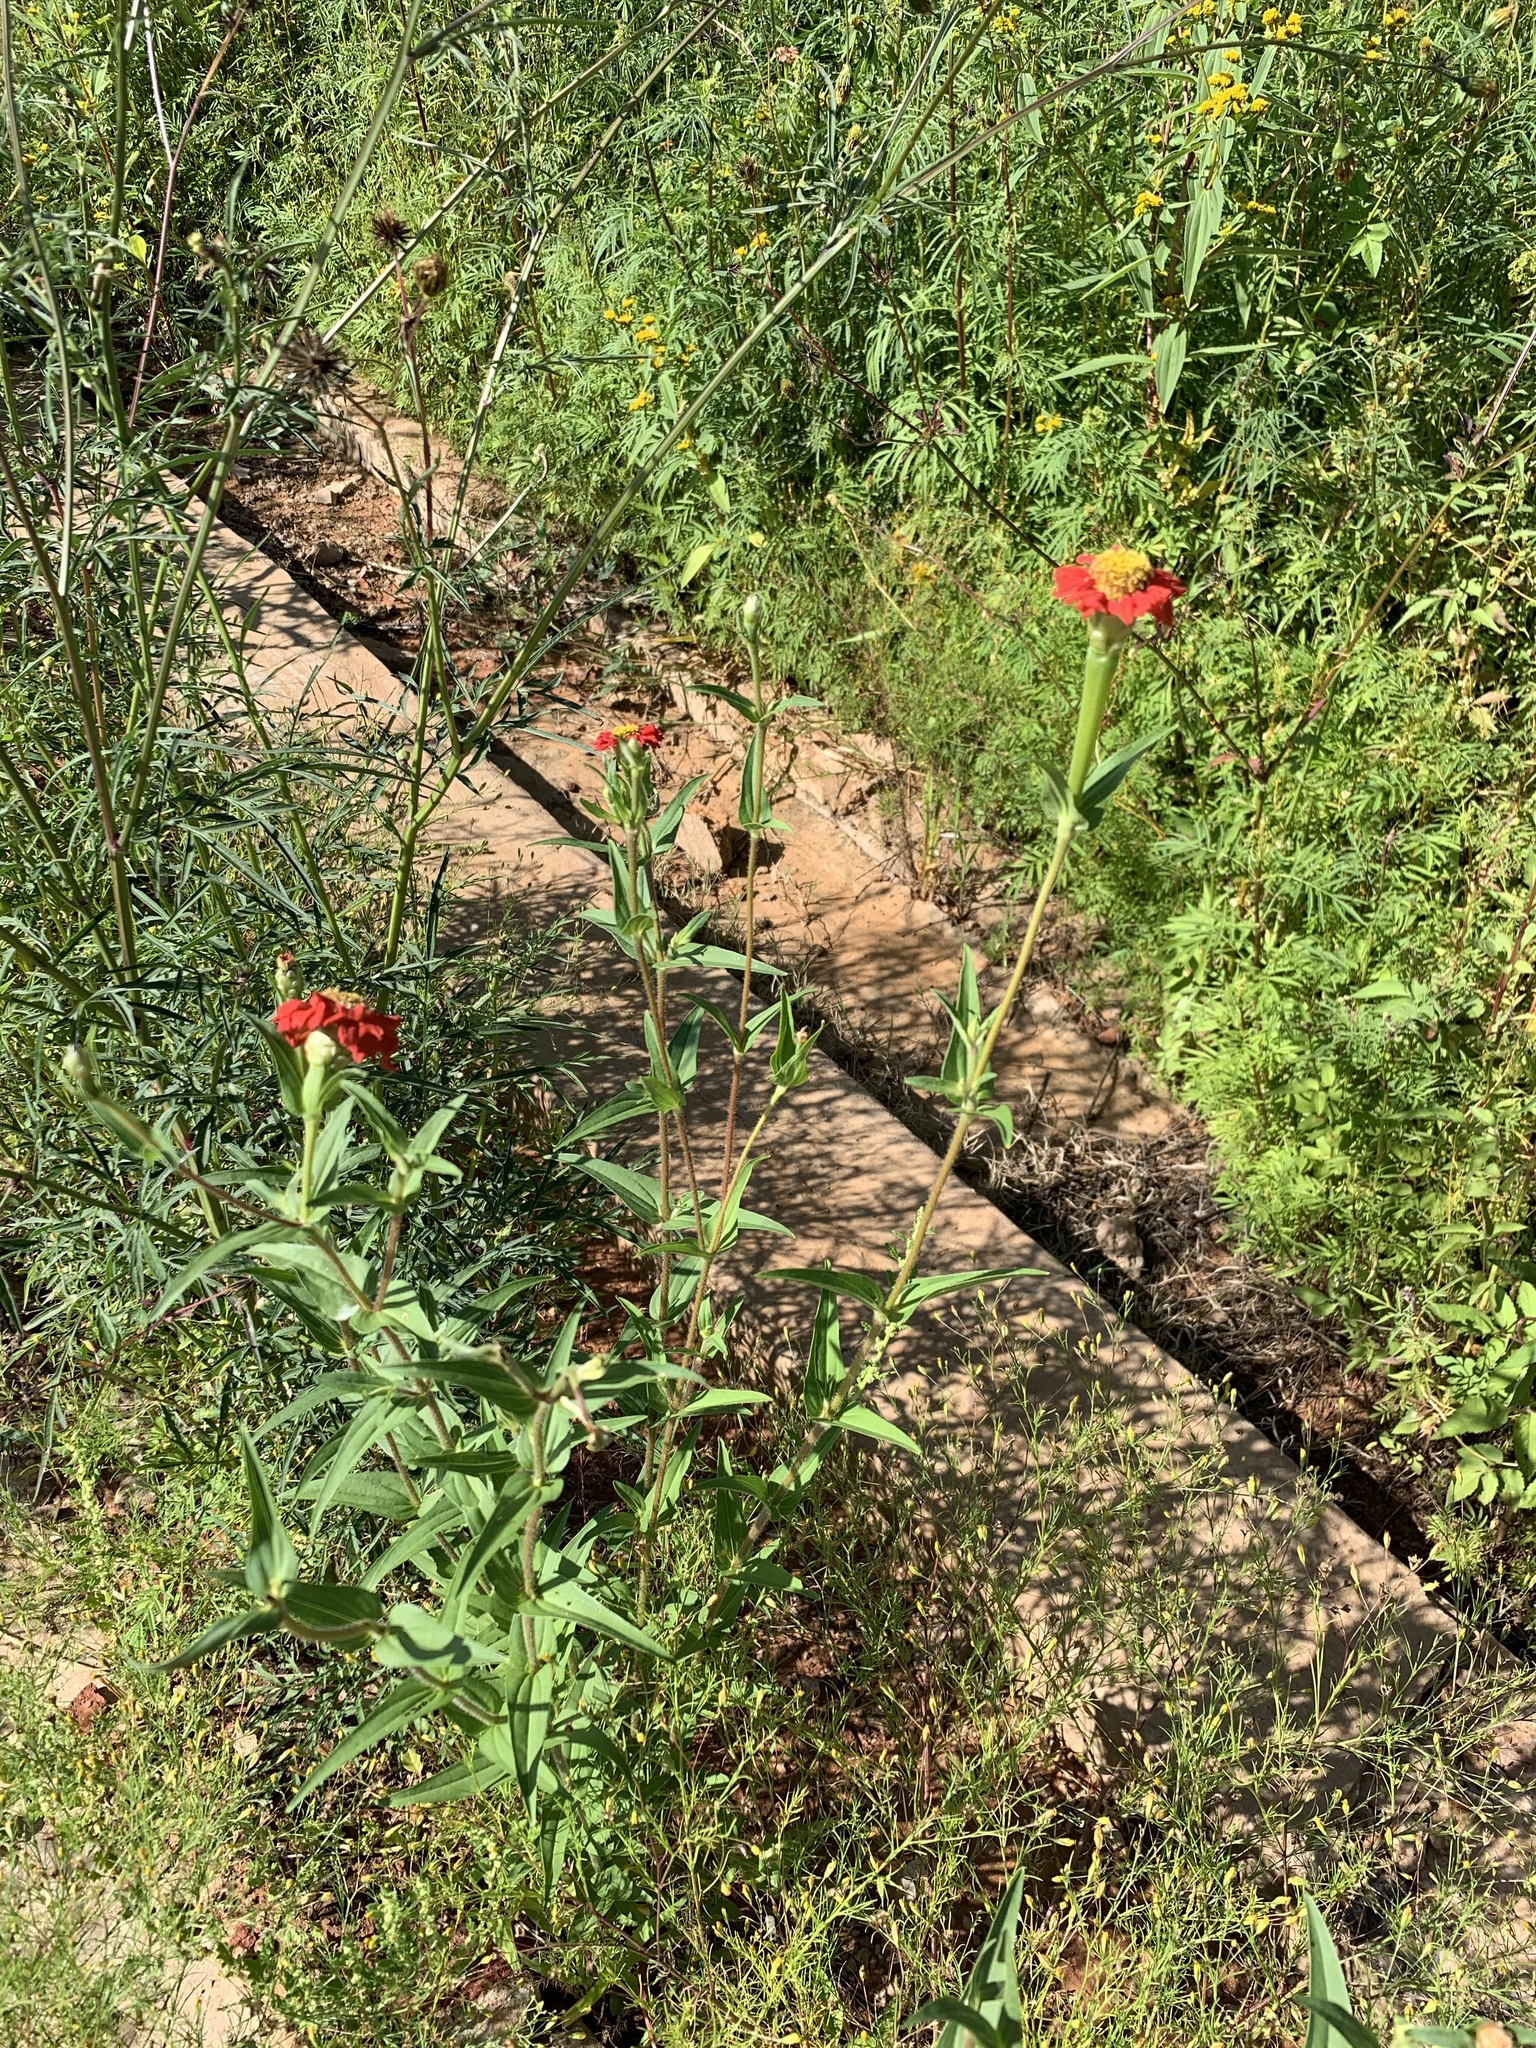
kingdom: Plantae
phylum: Tracheophyta
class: Magnoliopsida
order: Asterales
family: Asteraceae
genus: Zinnia
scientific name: Zinnia peruviana
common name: Peruvian zinnia
